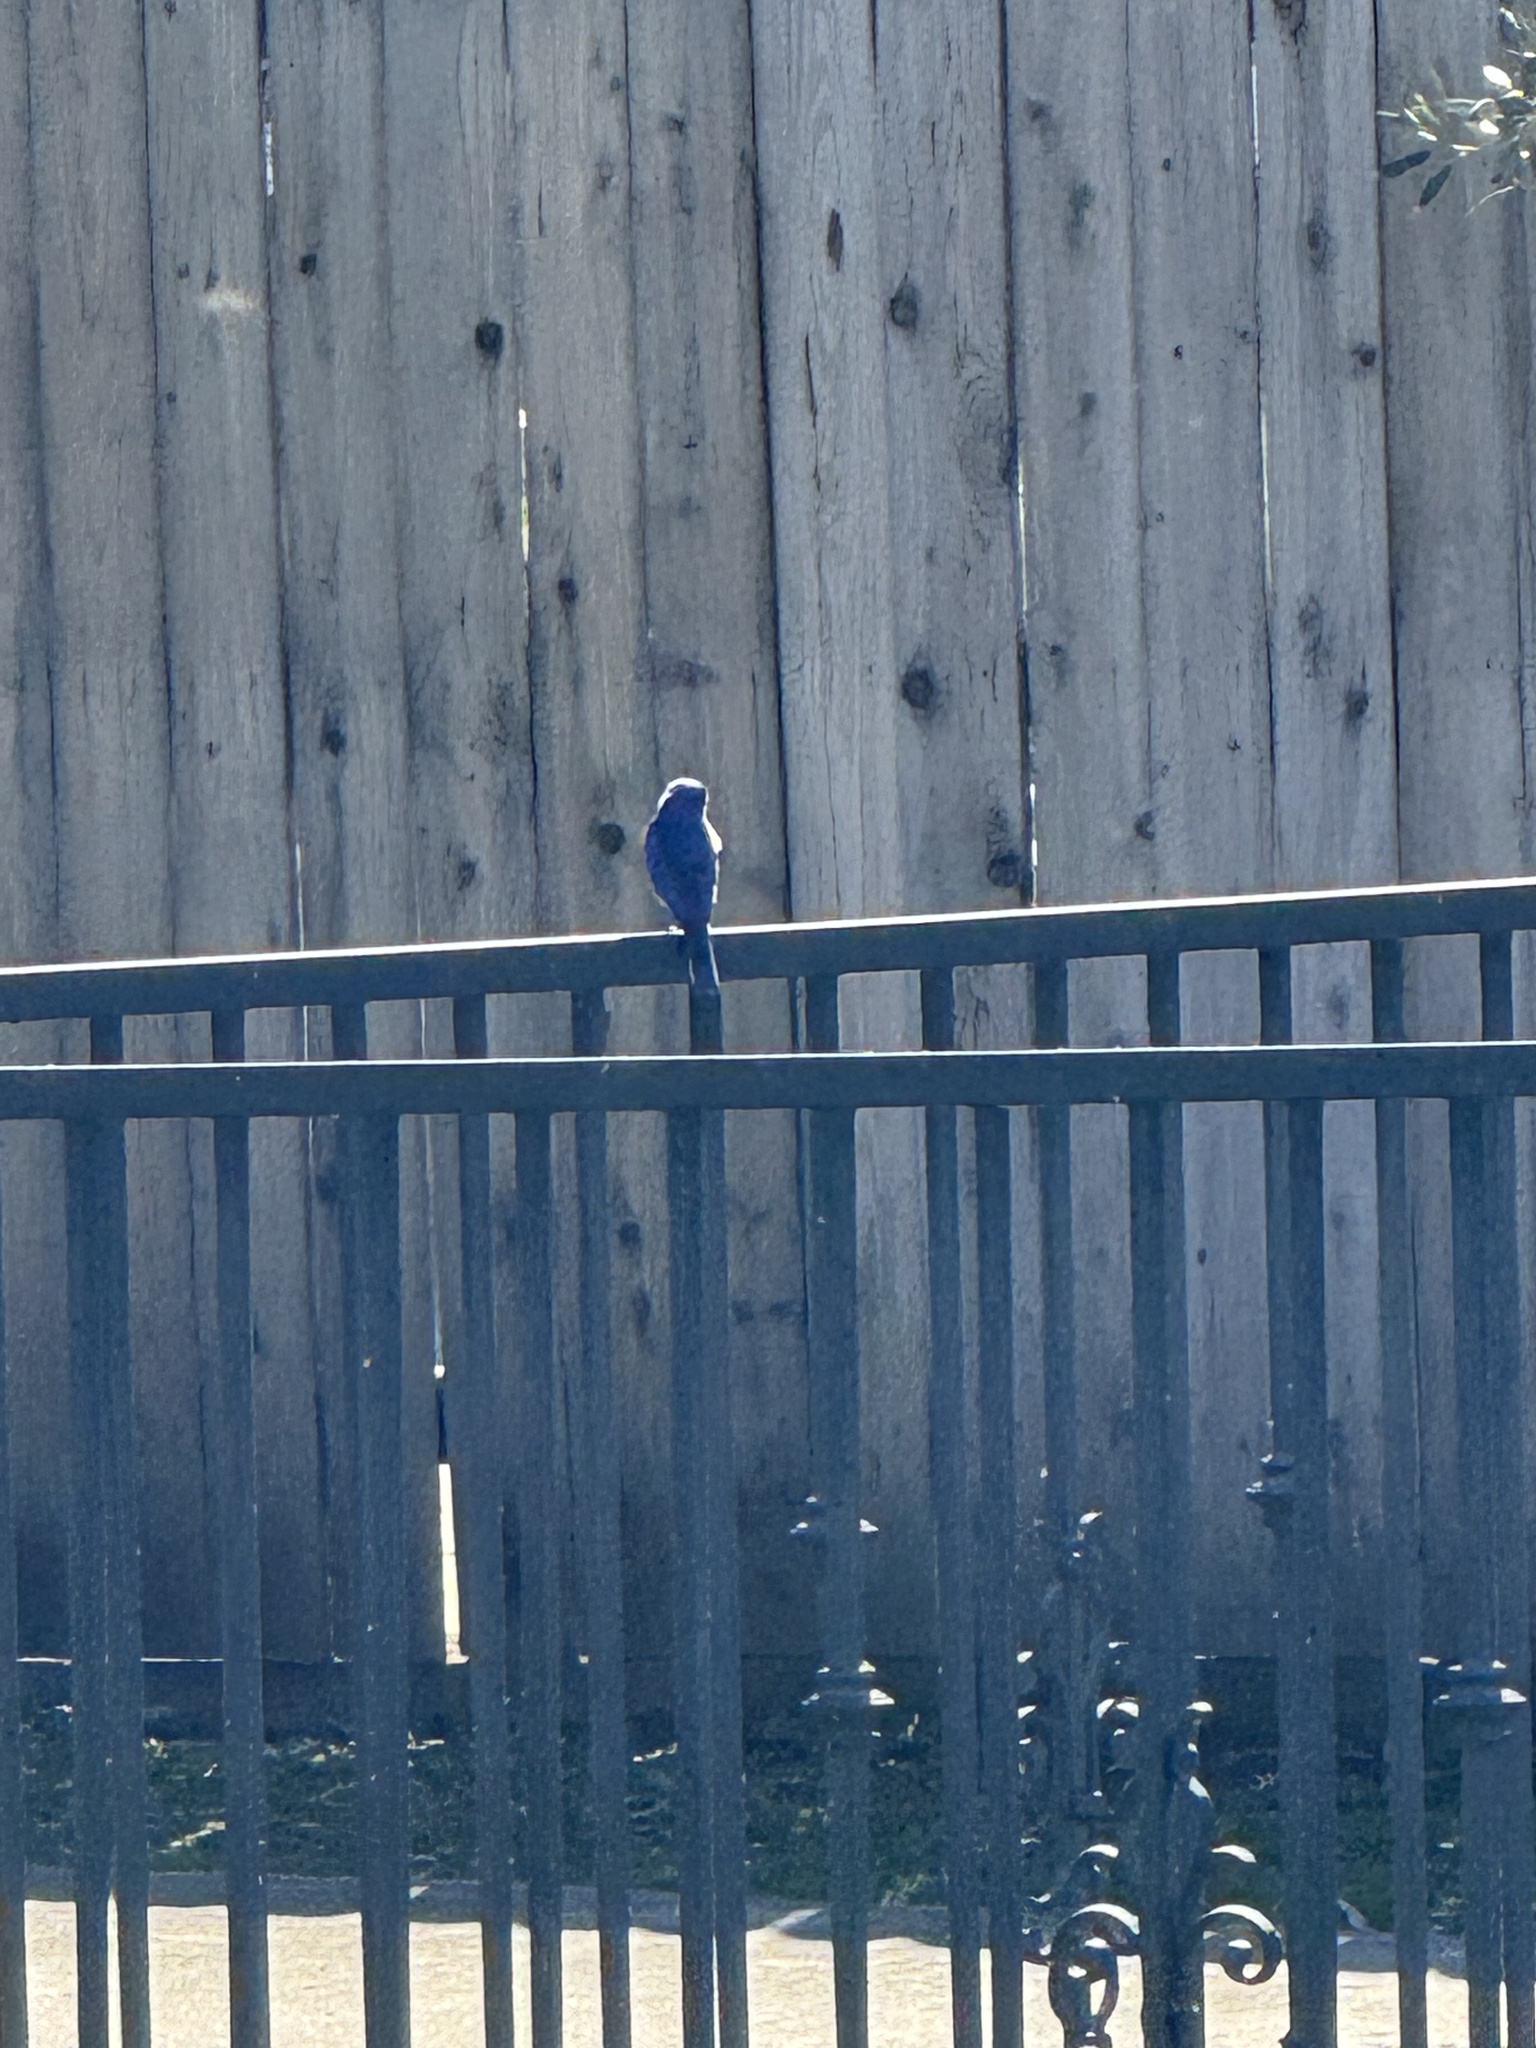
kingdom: Animalia
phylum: Chordata
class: Aves
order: Passeriformes
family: Turdidae
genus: Sialia
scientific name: Sialia mexicana
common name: Western bluebird
